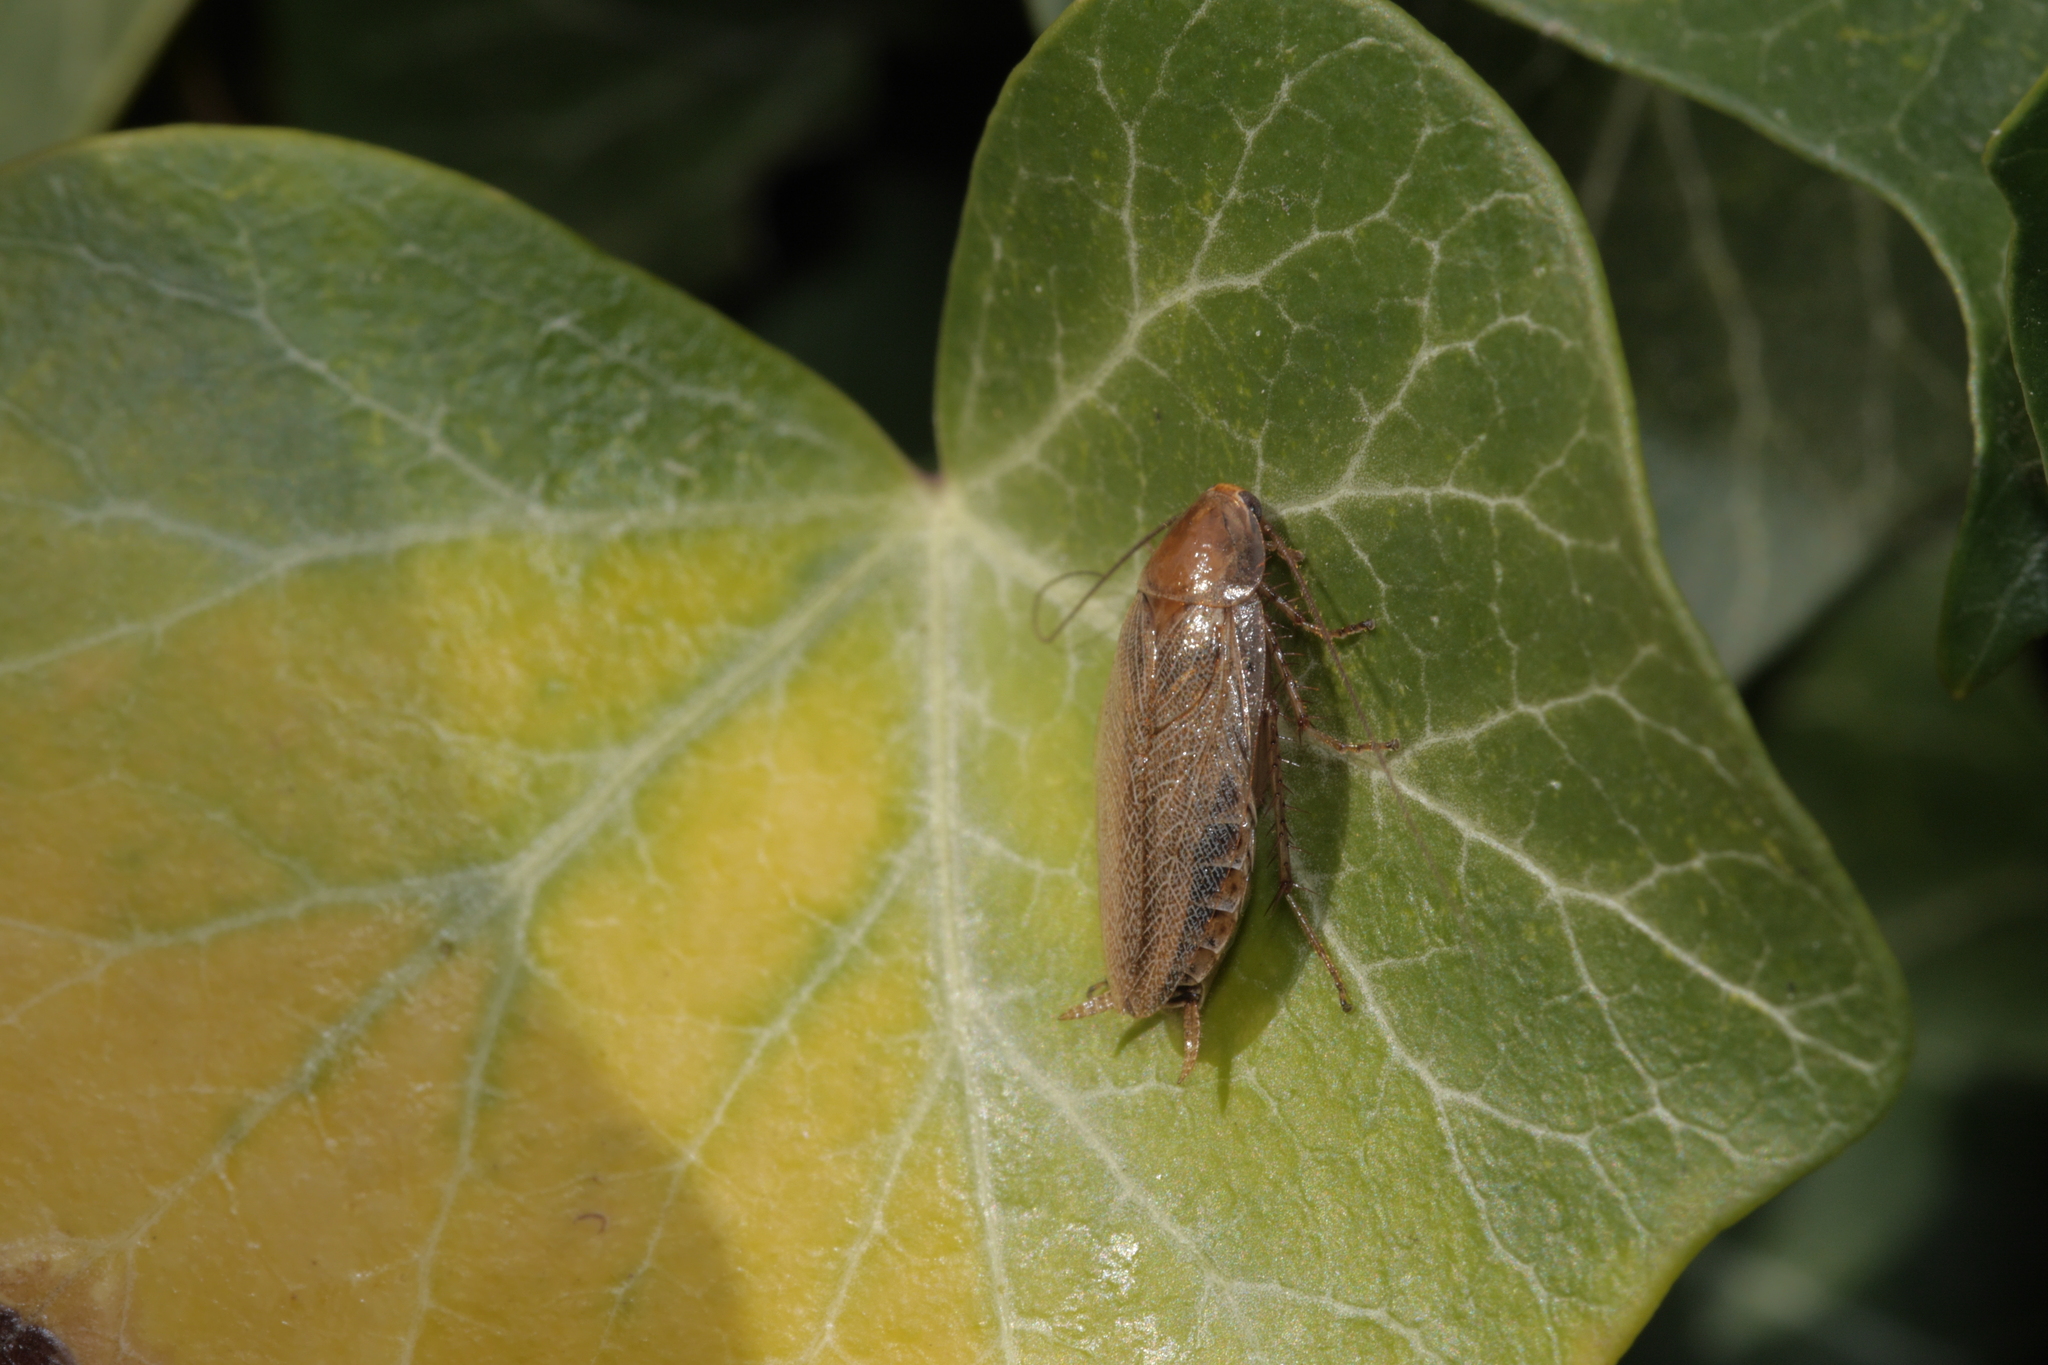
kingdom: Animalia
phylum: Arthropoda
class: Insecta
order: Blattodea
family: Ectobiidae
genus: Ectobius
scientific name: Ectobius vittiventris
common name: Garden cockroach
